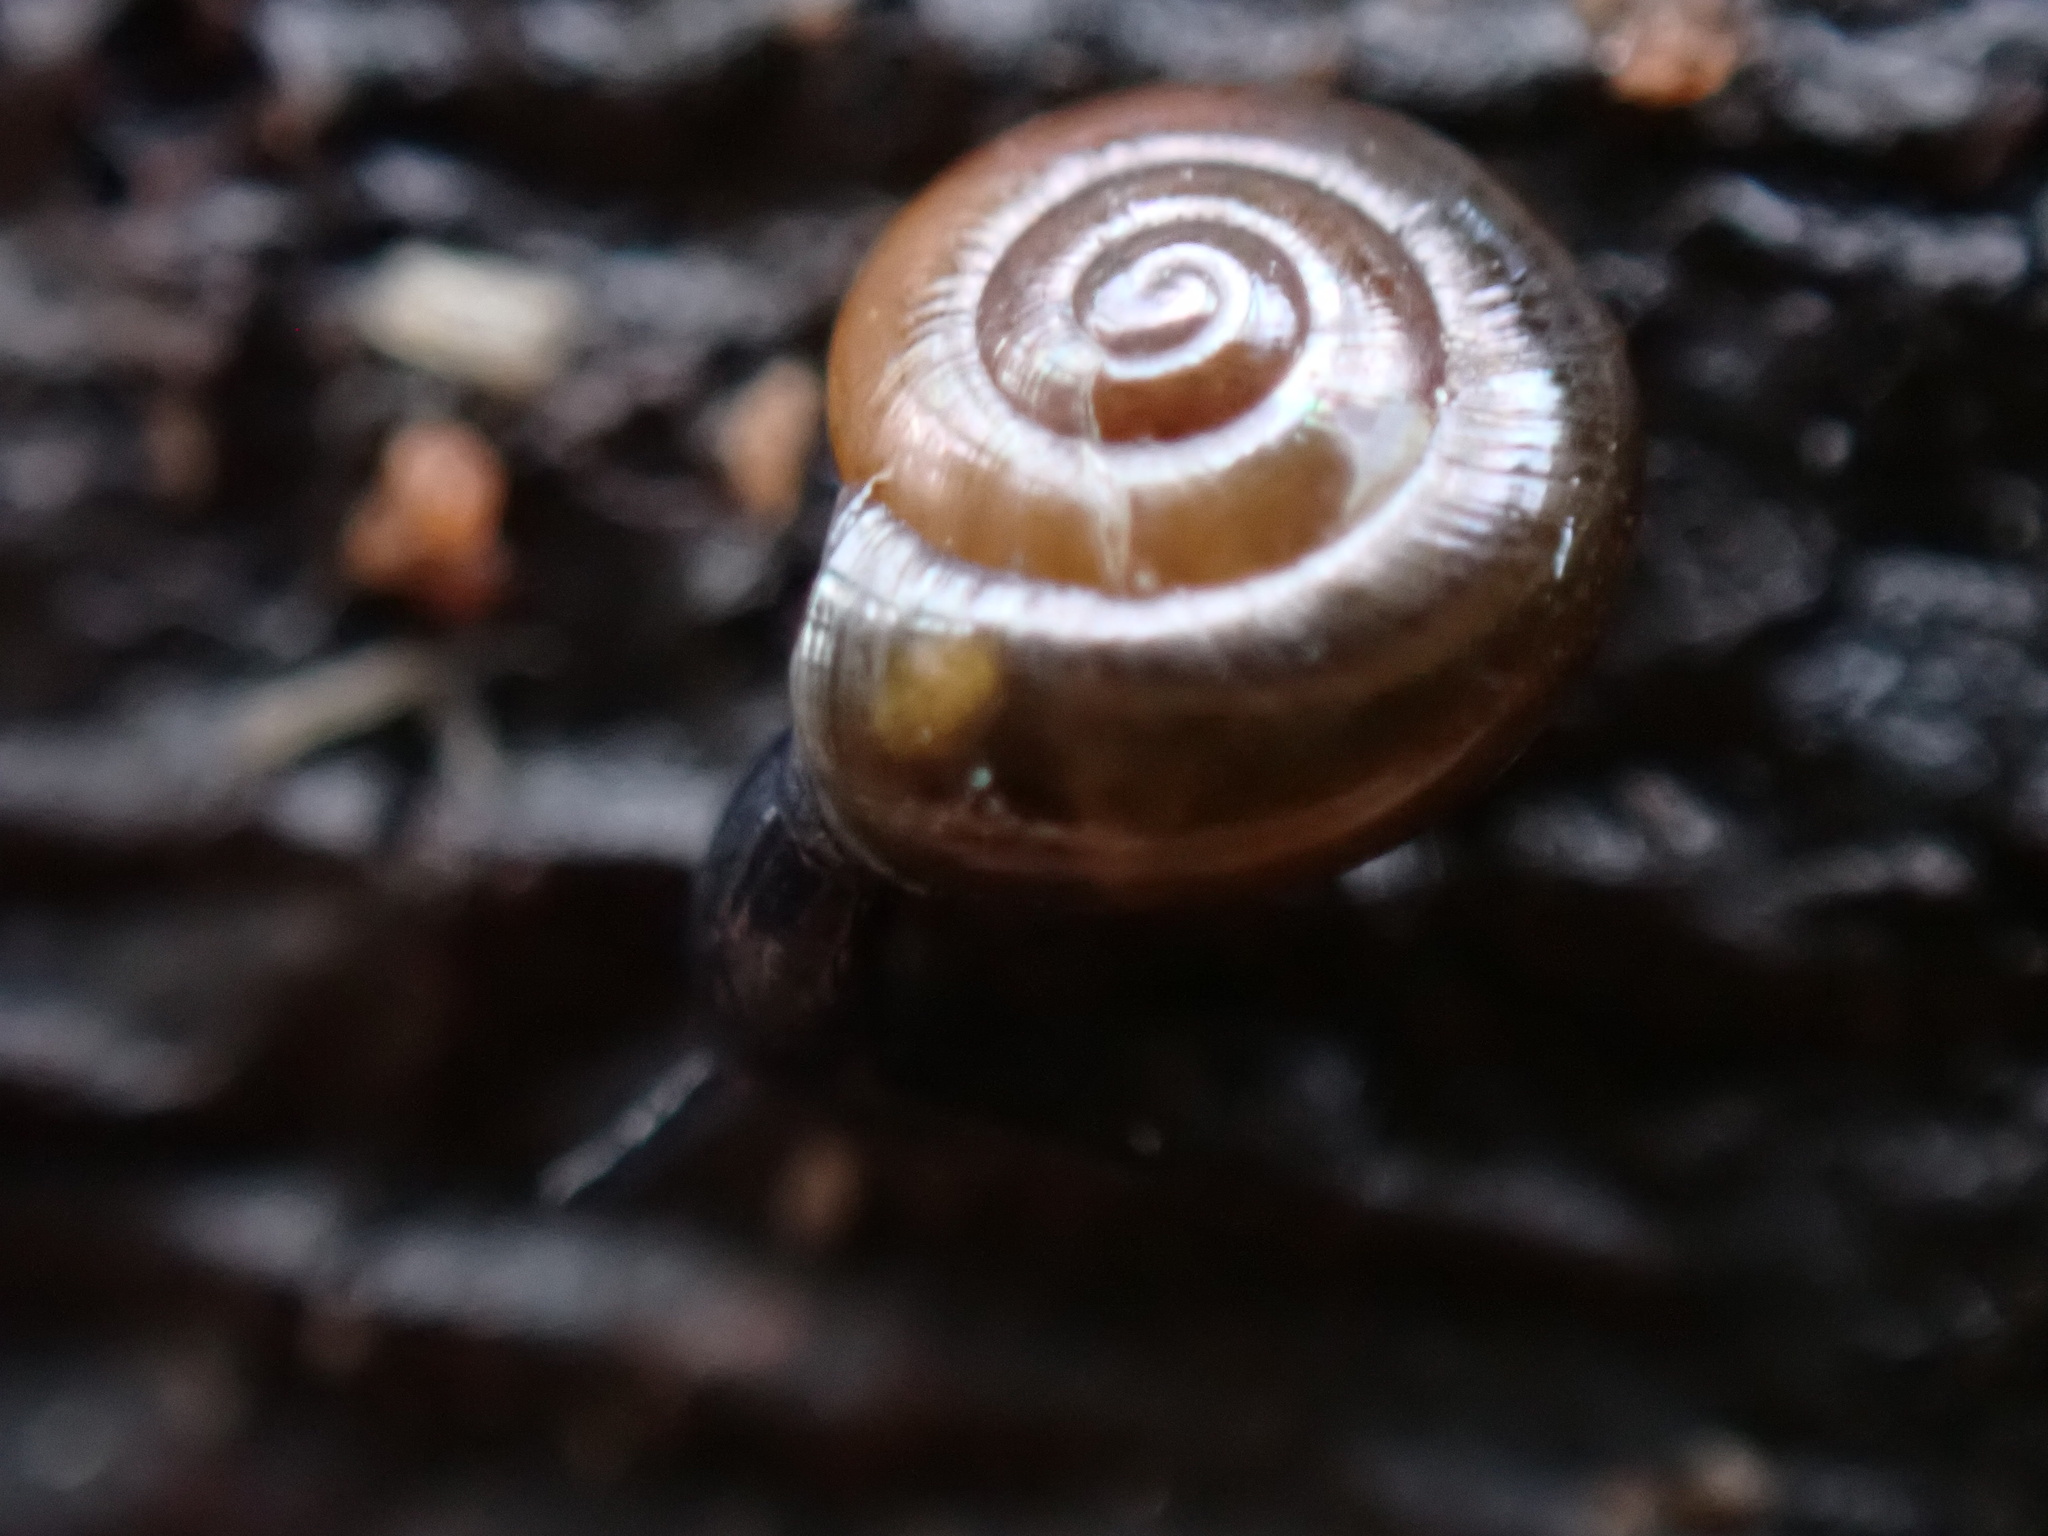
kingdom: Animalia
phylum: Mollusca
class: Gastropoda
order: Stylommatophora
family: Gastrodontidae
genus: Zonitoides
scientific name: Zonitoides nitidus
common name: Shiny glass snail
